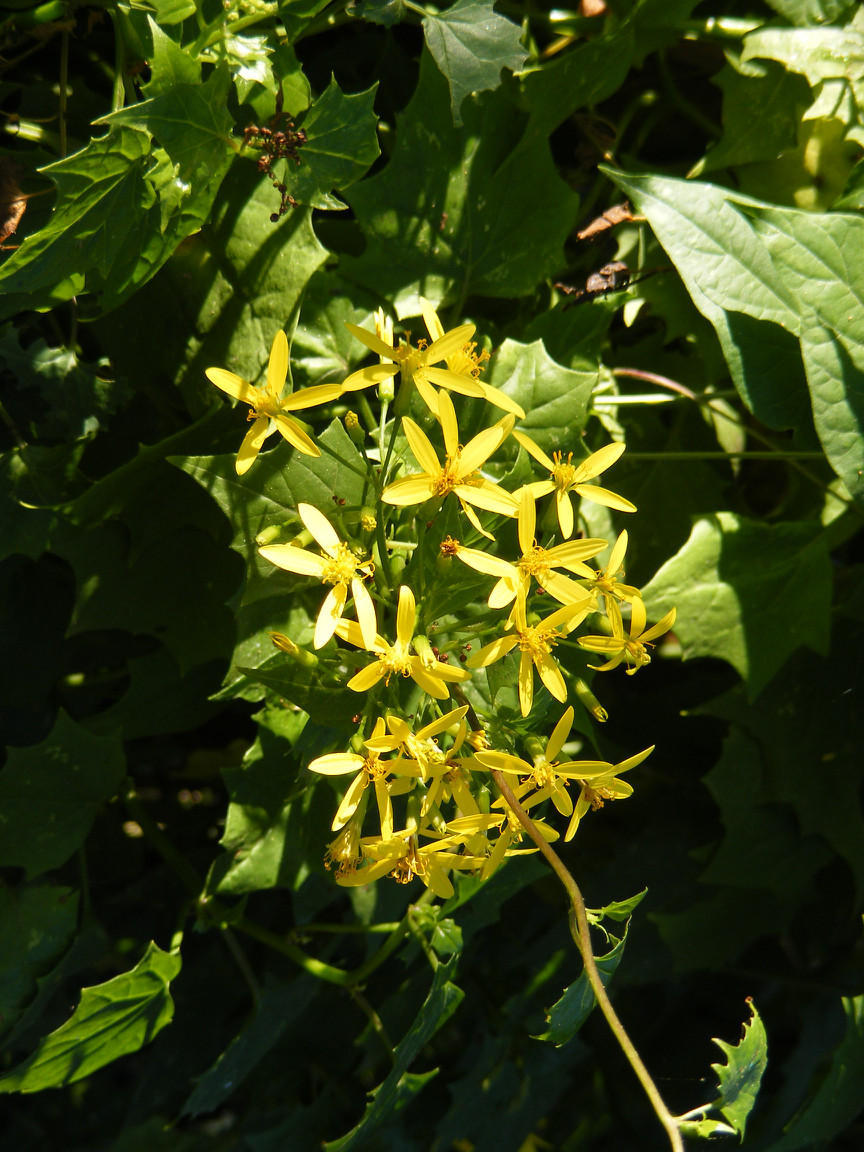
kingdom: Plantae
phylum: Tracheophyta
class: Magnoliopsida
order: Asterales
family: Asteraceae
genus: Senecio
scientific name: Senecio tamoides
